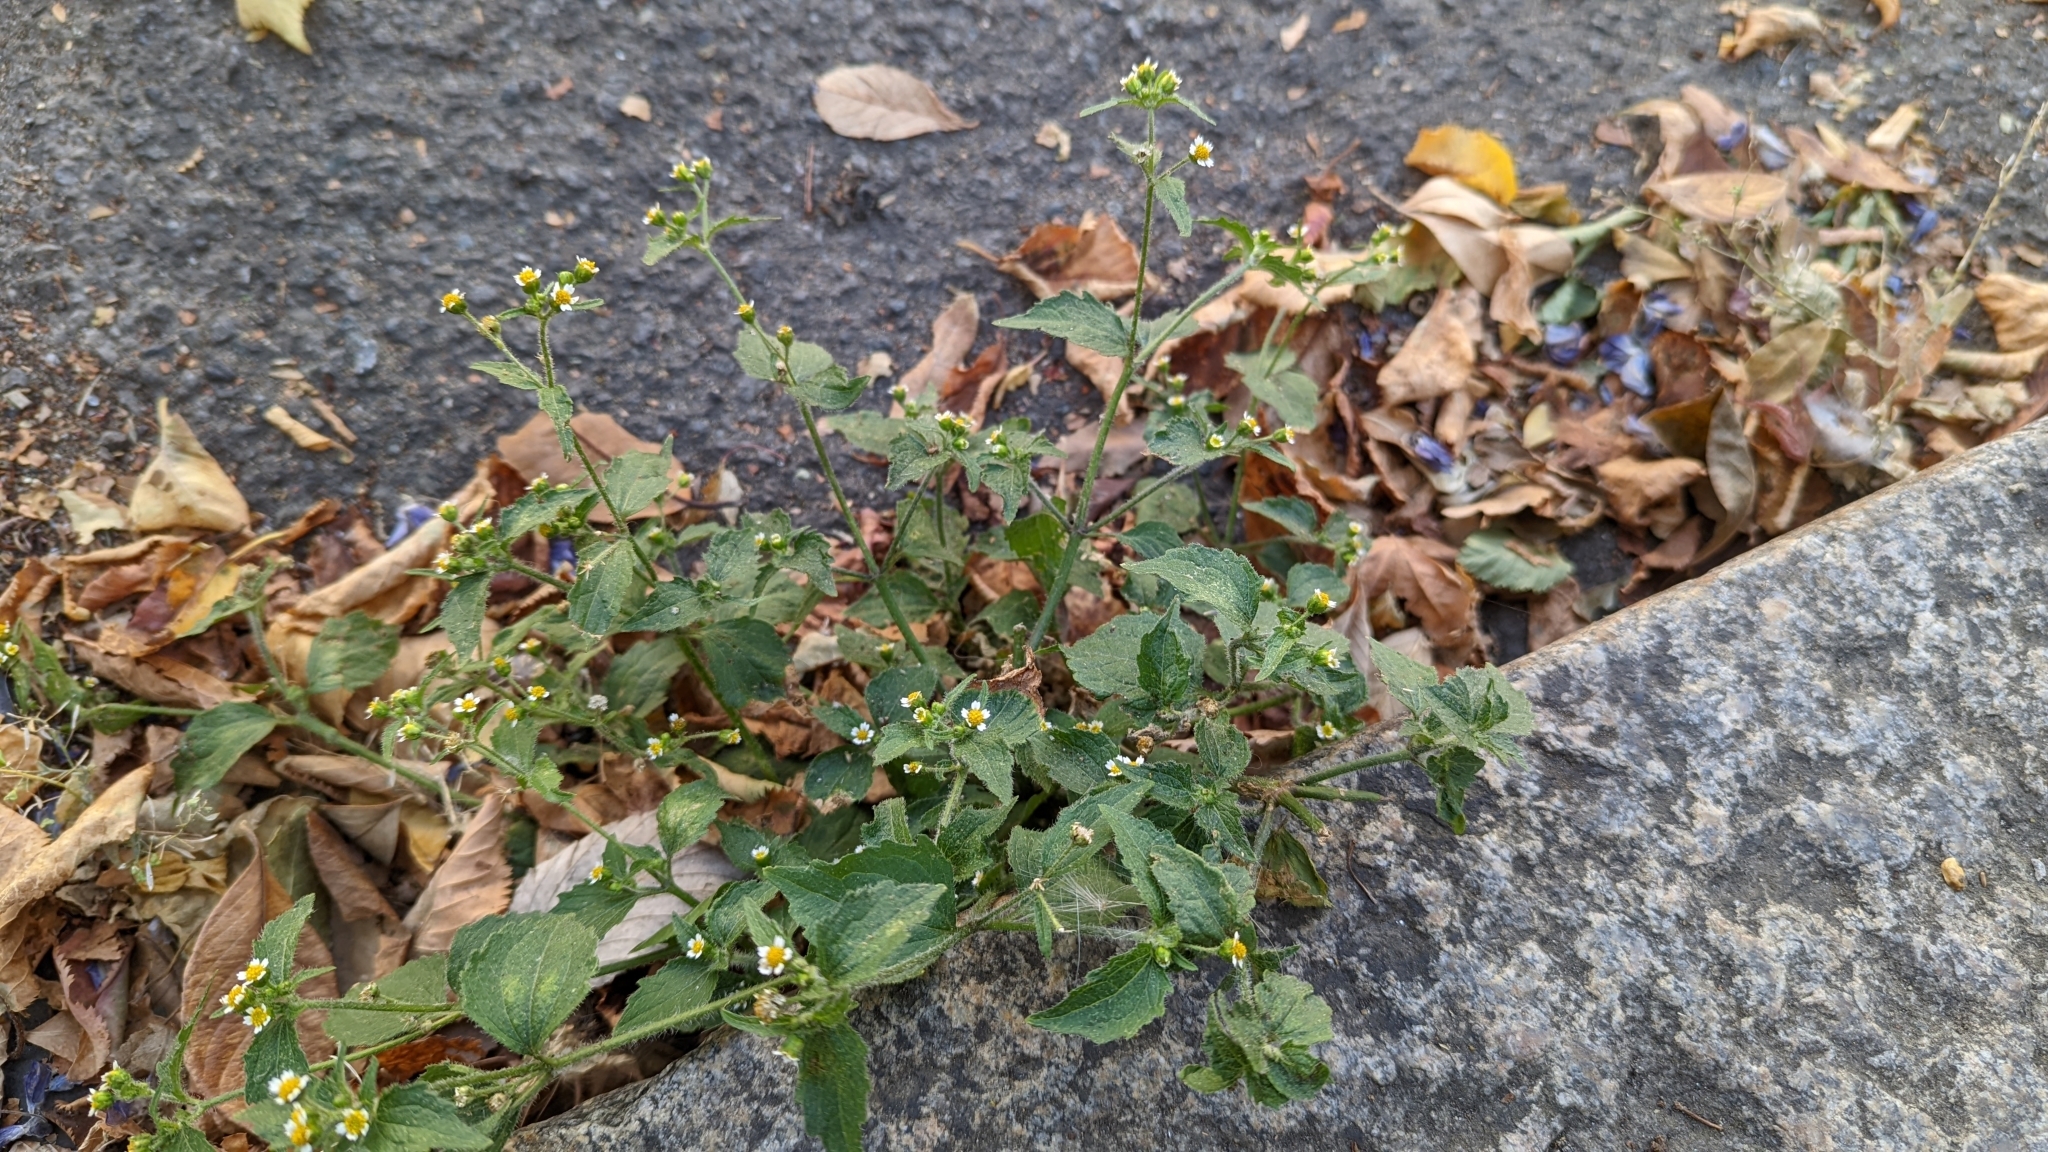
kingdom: Plantae
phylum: Tracheophyta
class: Magnoliopsida
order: Asterales
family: Asteraceae
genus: Galinsoga
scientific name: Galinsoga quadriradiata
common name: Shaggy soldier
